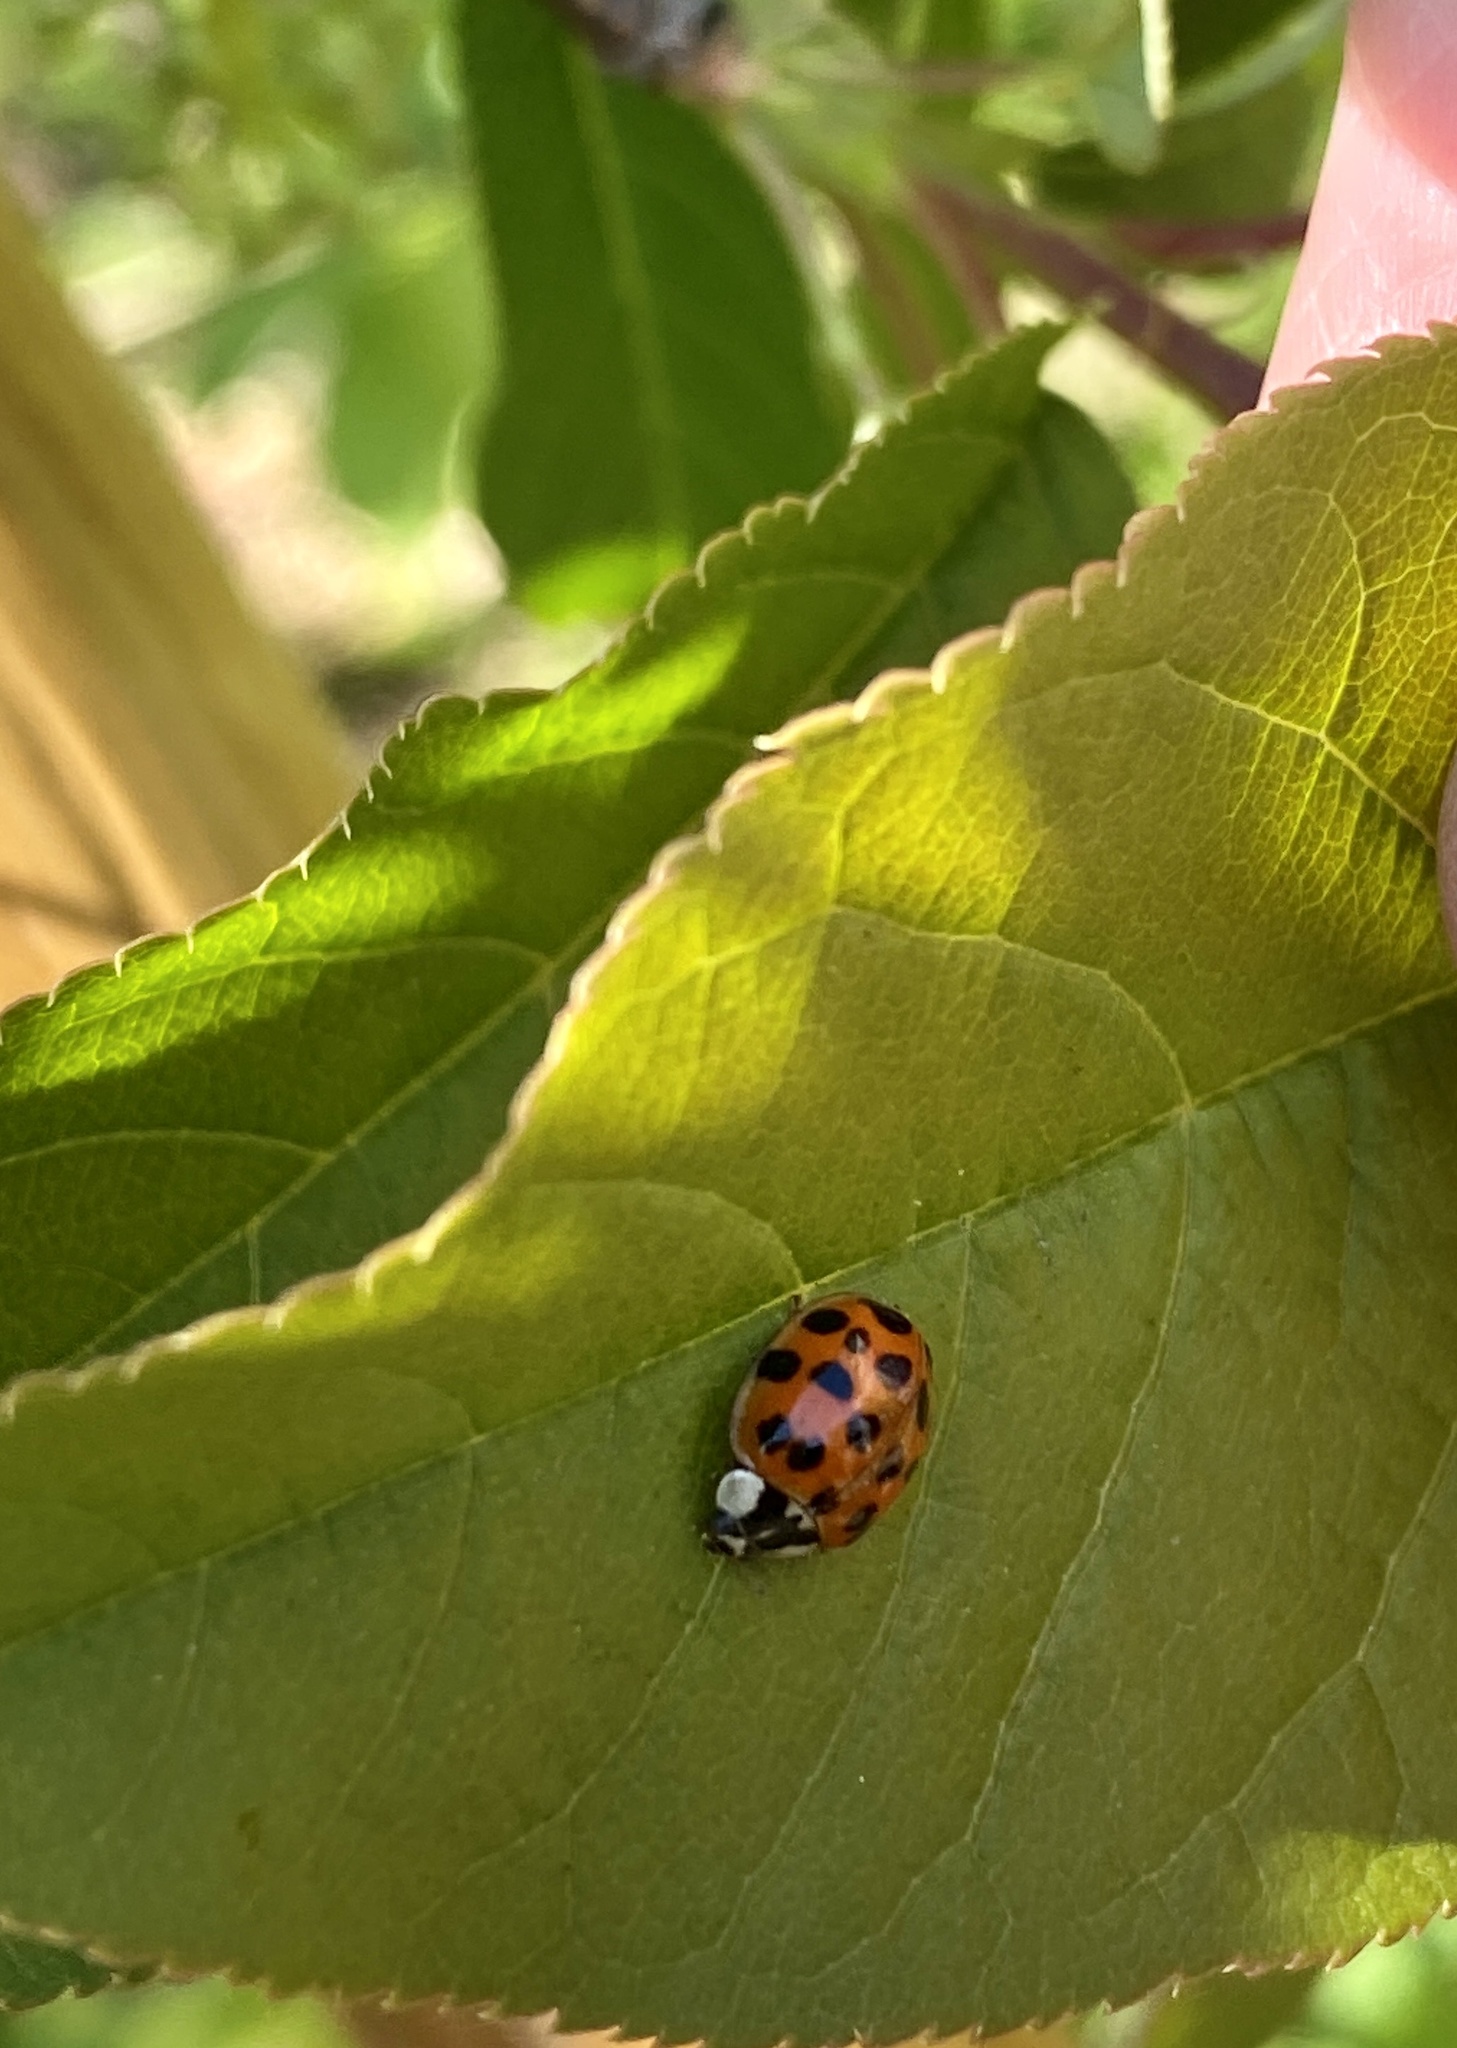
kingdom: Animalia
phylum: Arthropoda
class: Insecta
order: Coleoptera
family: Coccinellidae
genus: Harmonia
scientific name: Harmonia axyridis
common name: Harlequin ladybird
